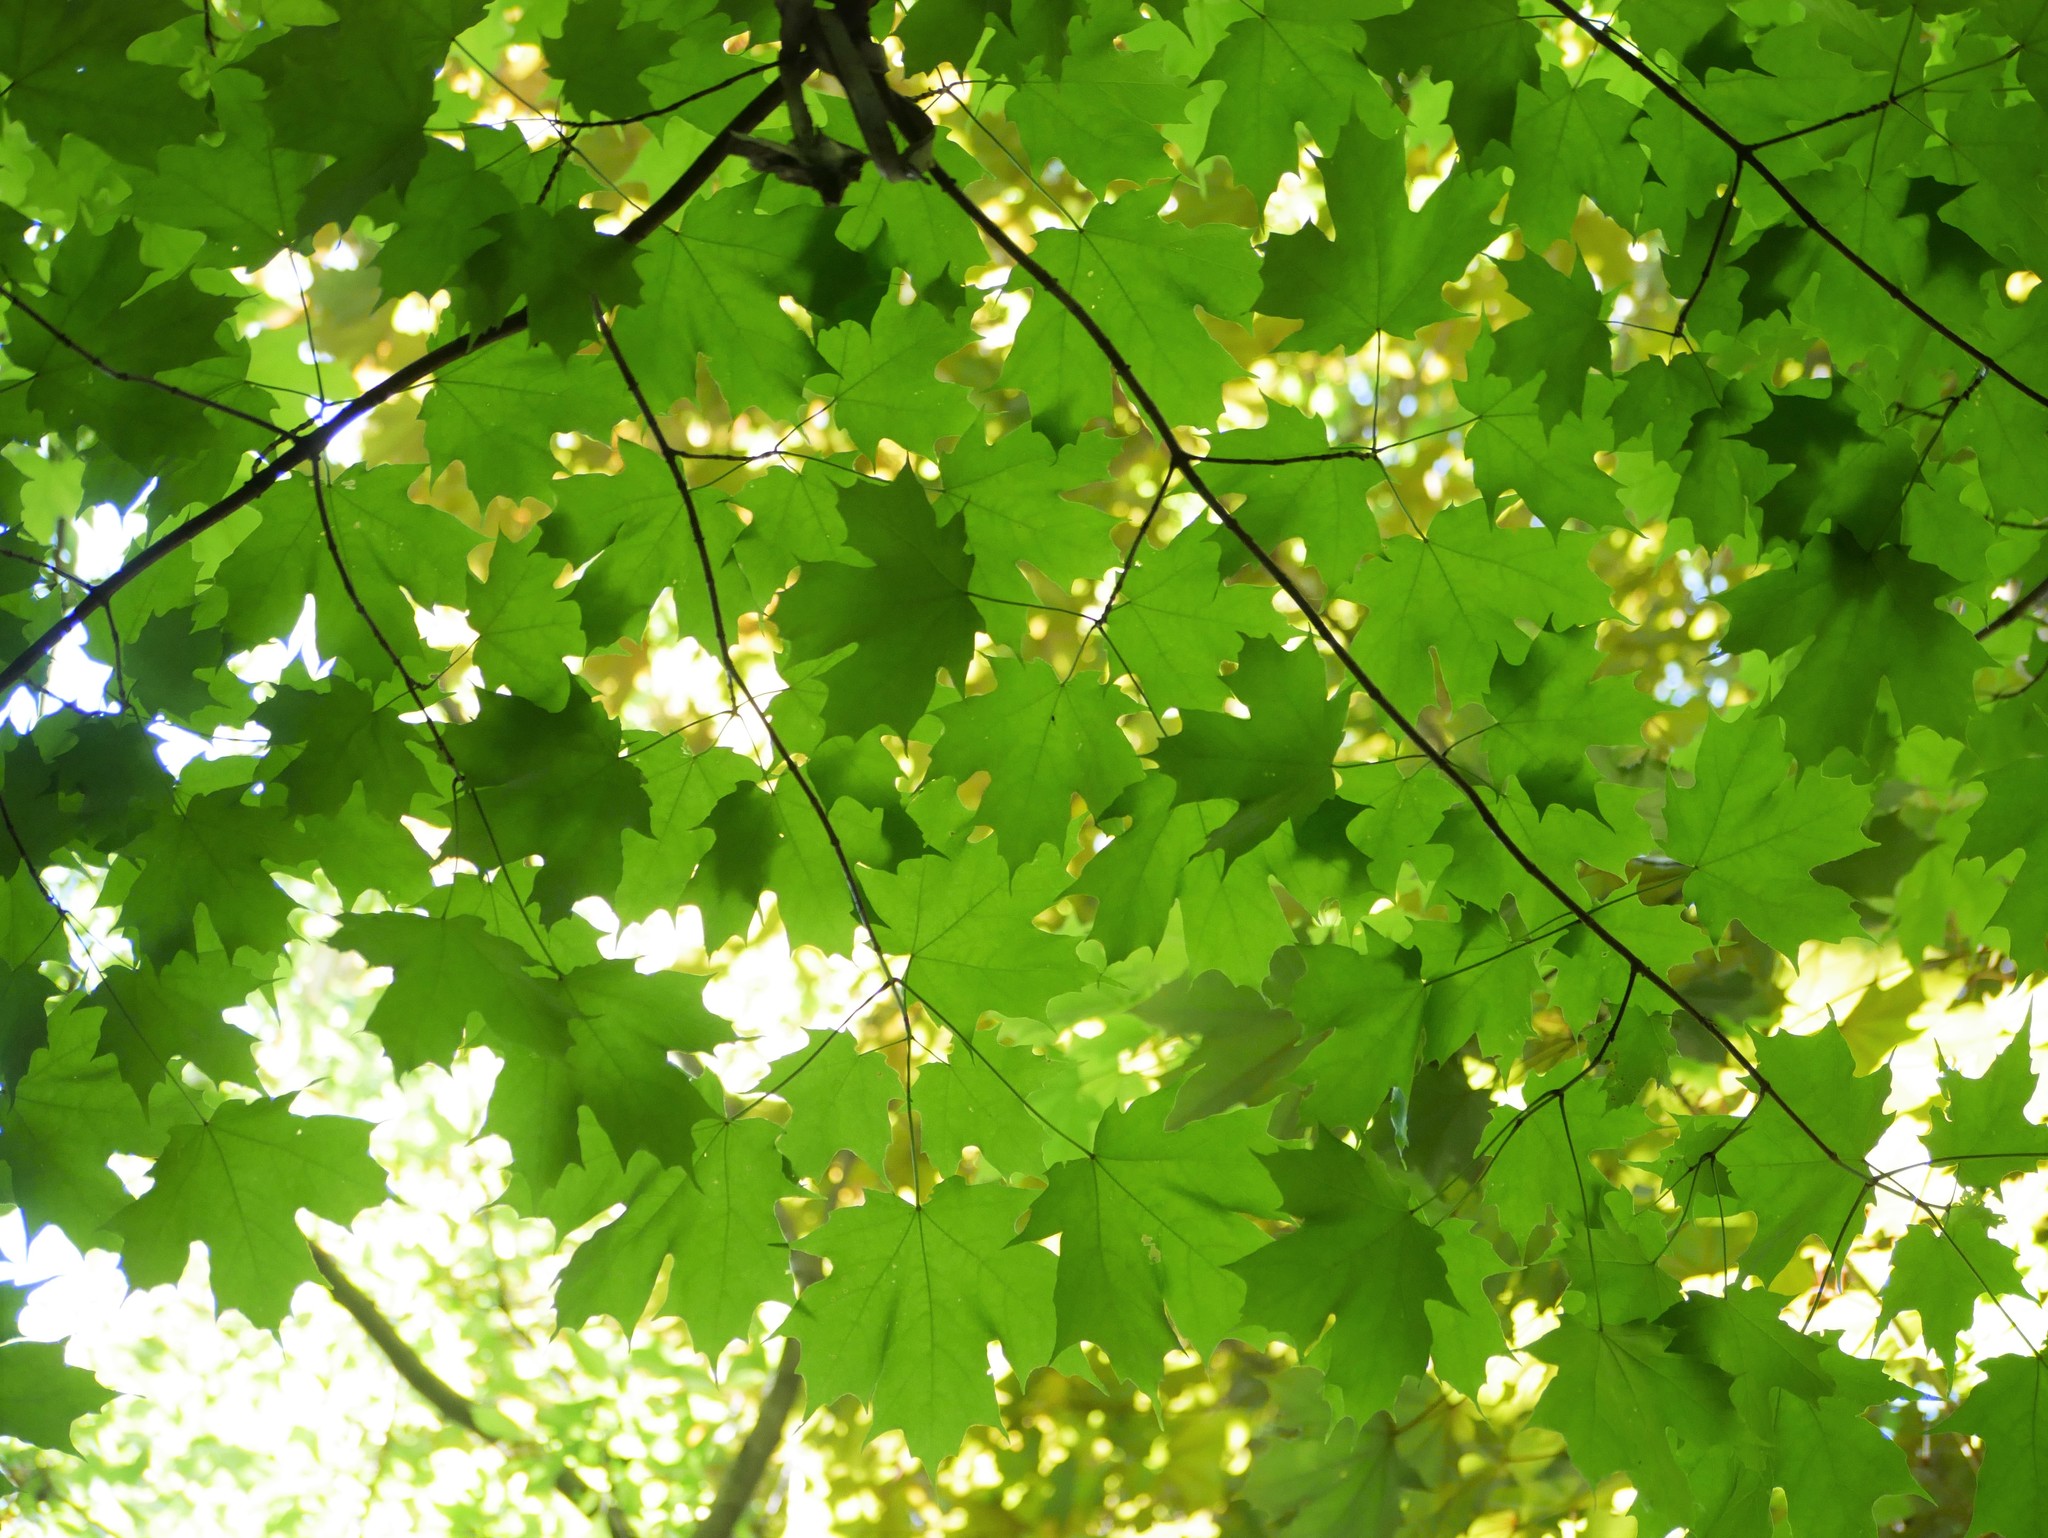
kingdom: Plantae
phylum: Tracheophyta
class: Magnoliopsida
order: Sapindales
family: Sapindaceae
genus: Acer
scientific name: Acer saccharum
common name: Sugar maple
